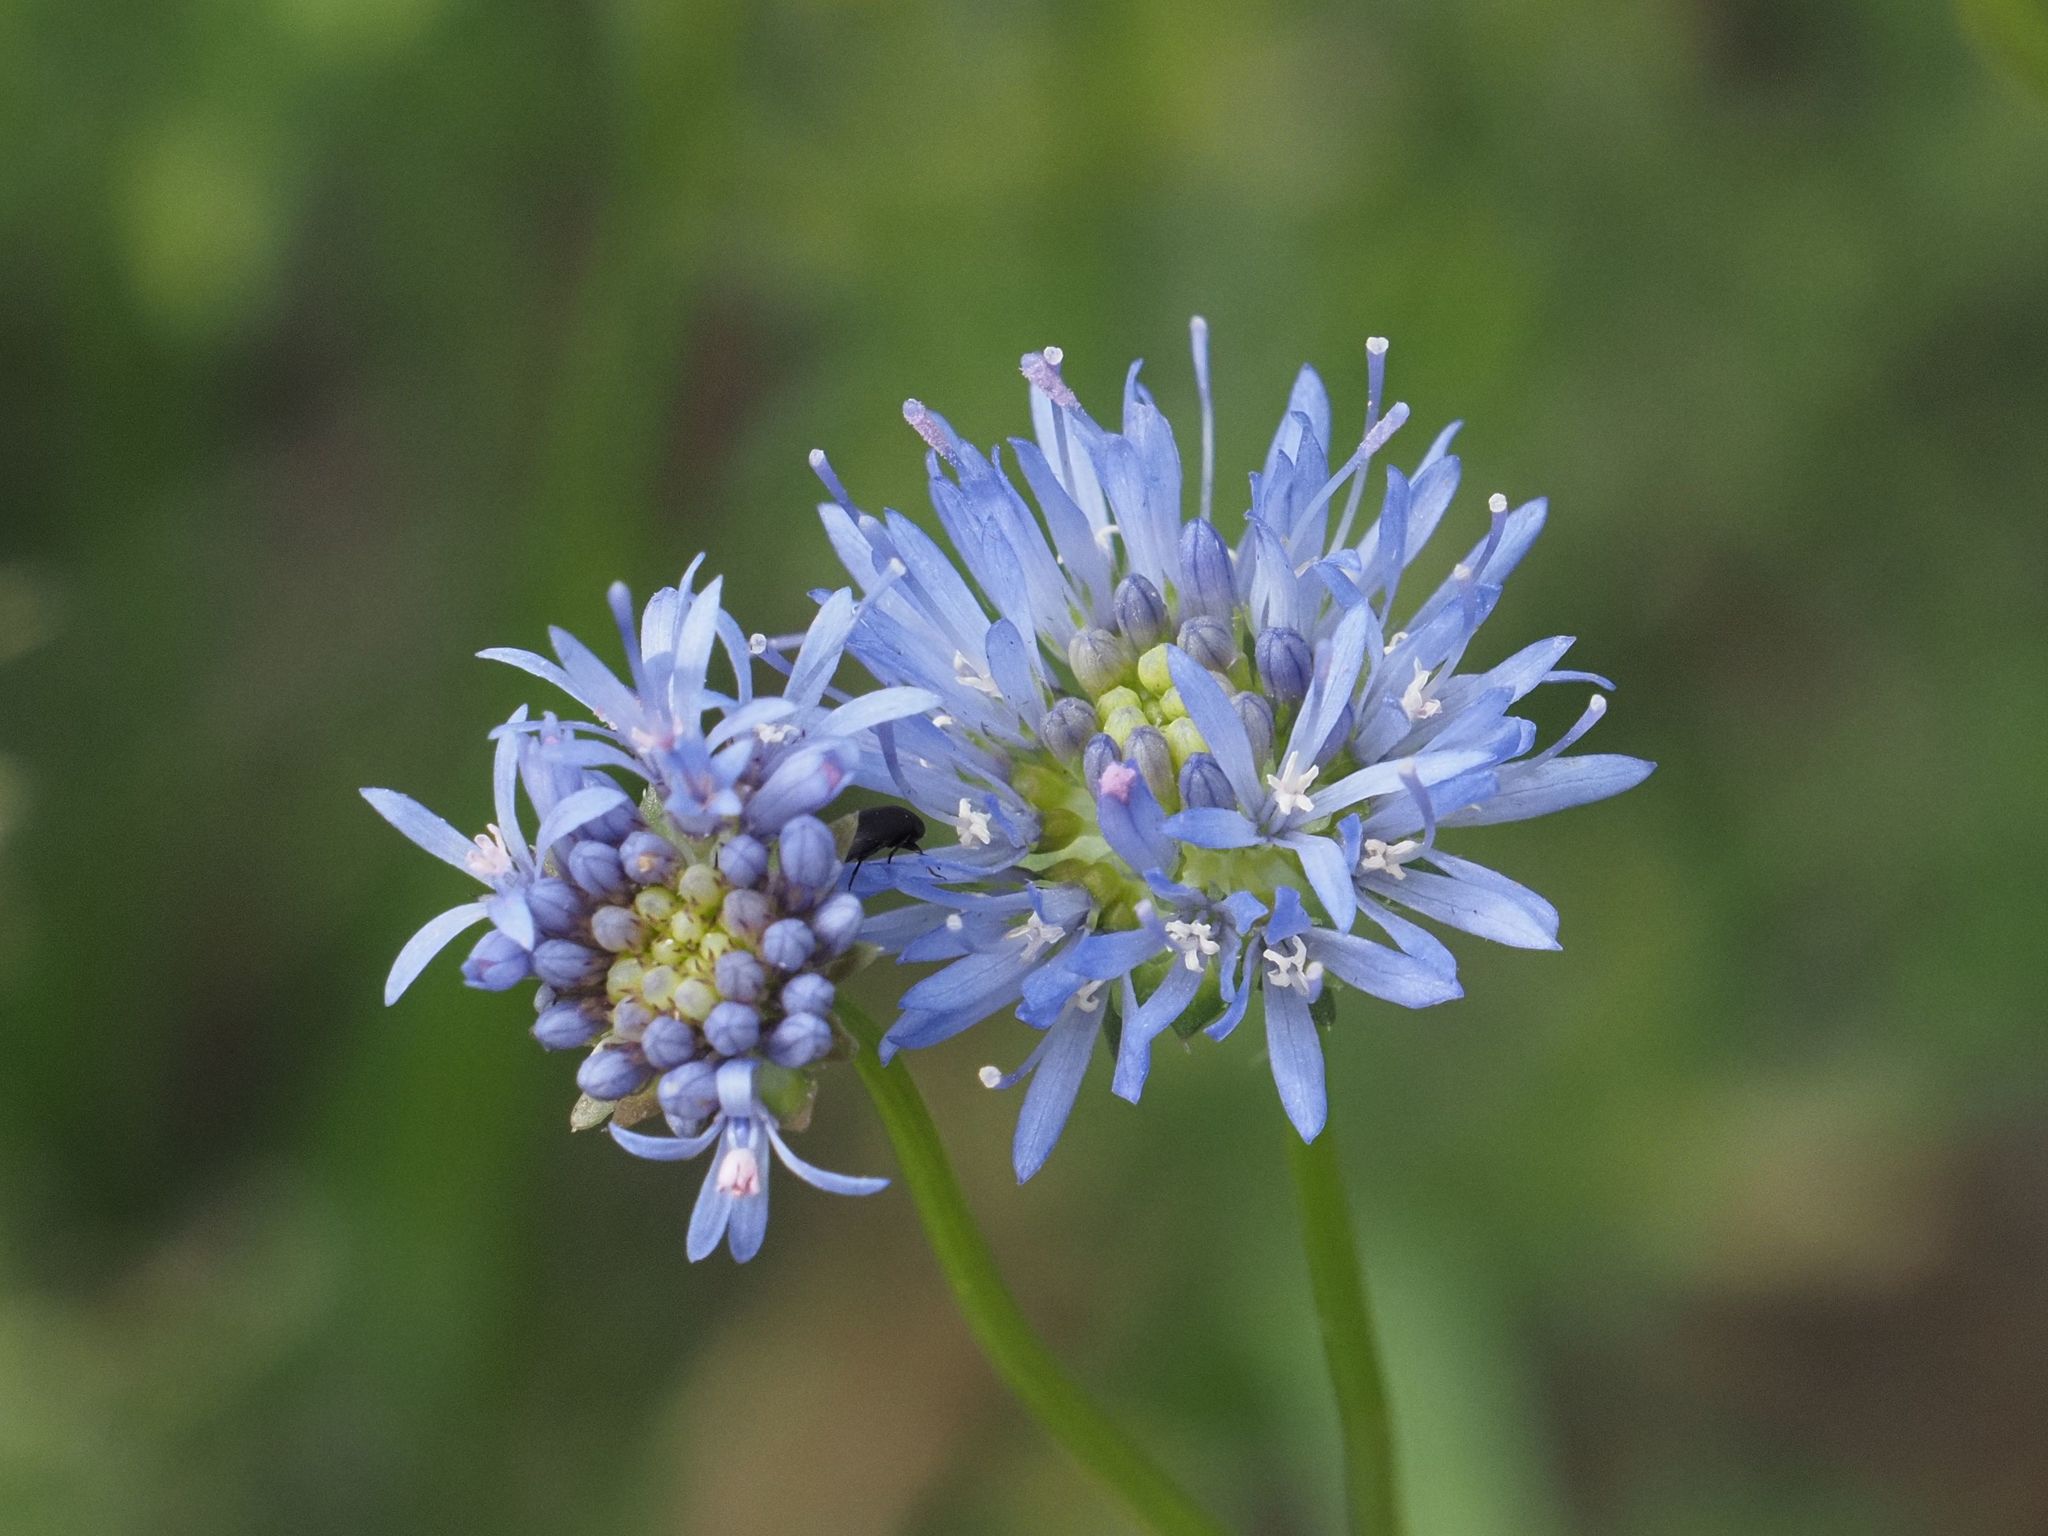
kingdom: Plantae
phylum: Tracheophyta
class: Magnoliopsida
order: Asterales
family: Campanulaceae
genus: Jasione
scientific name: Jasione montana
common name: Sheep's-bit
